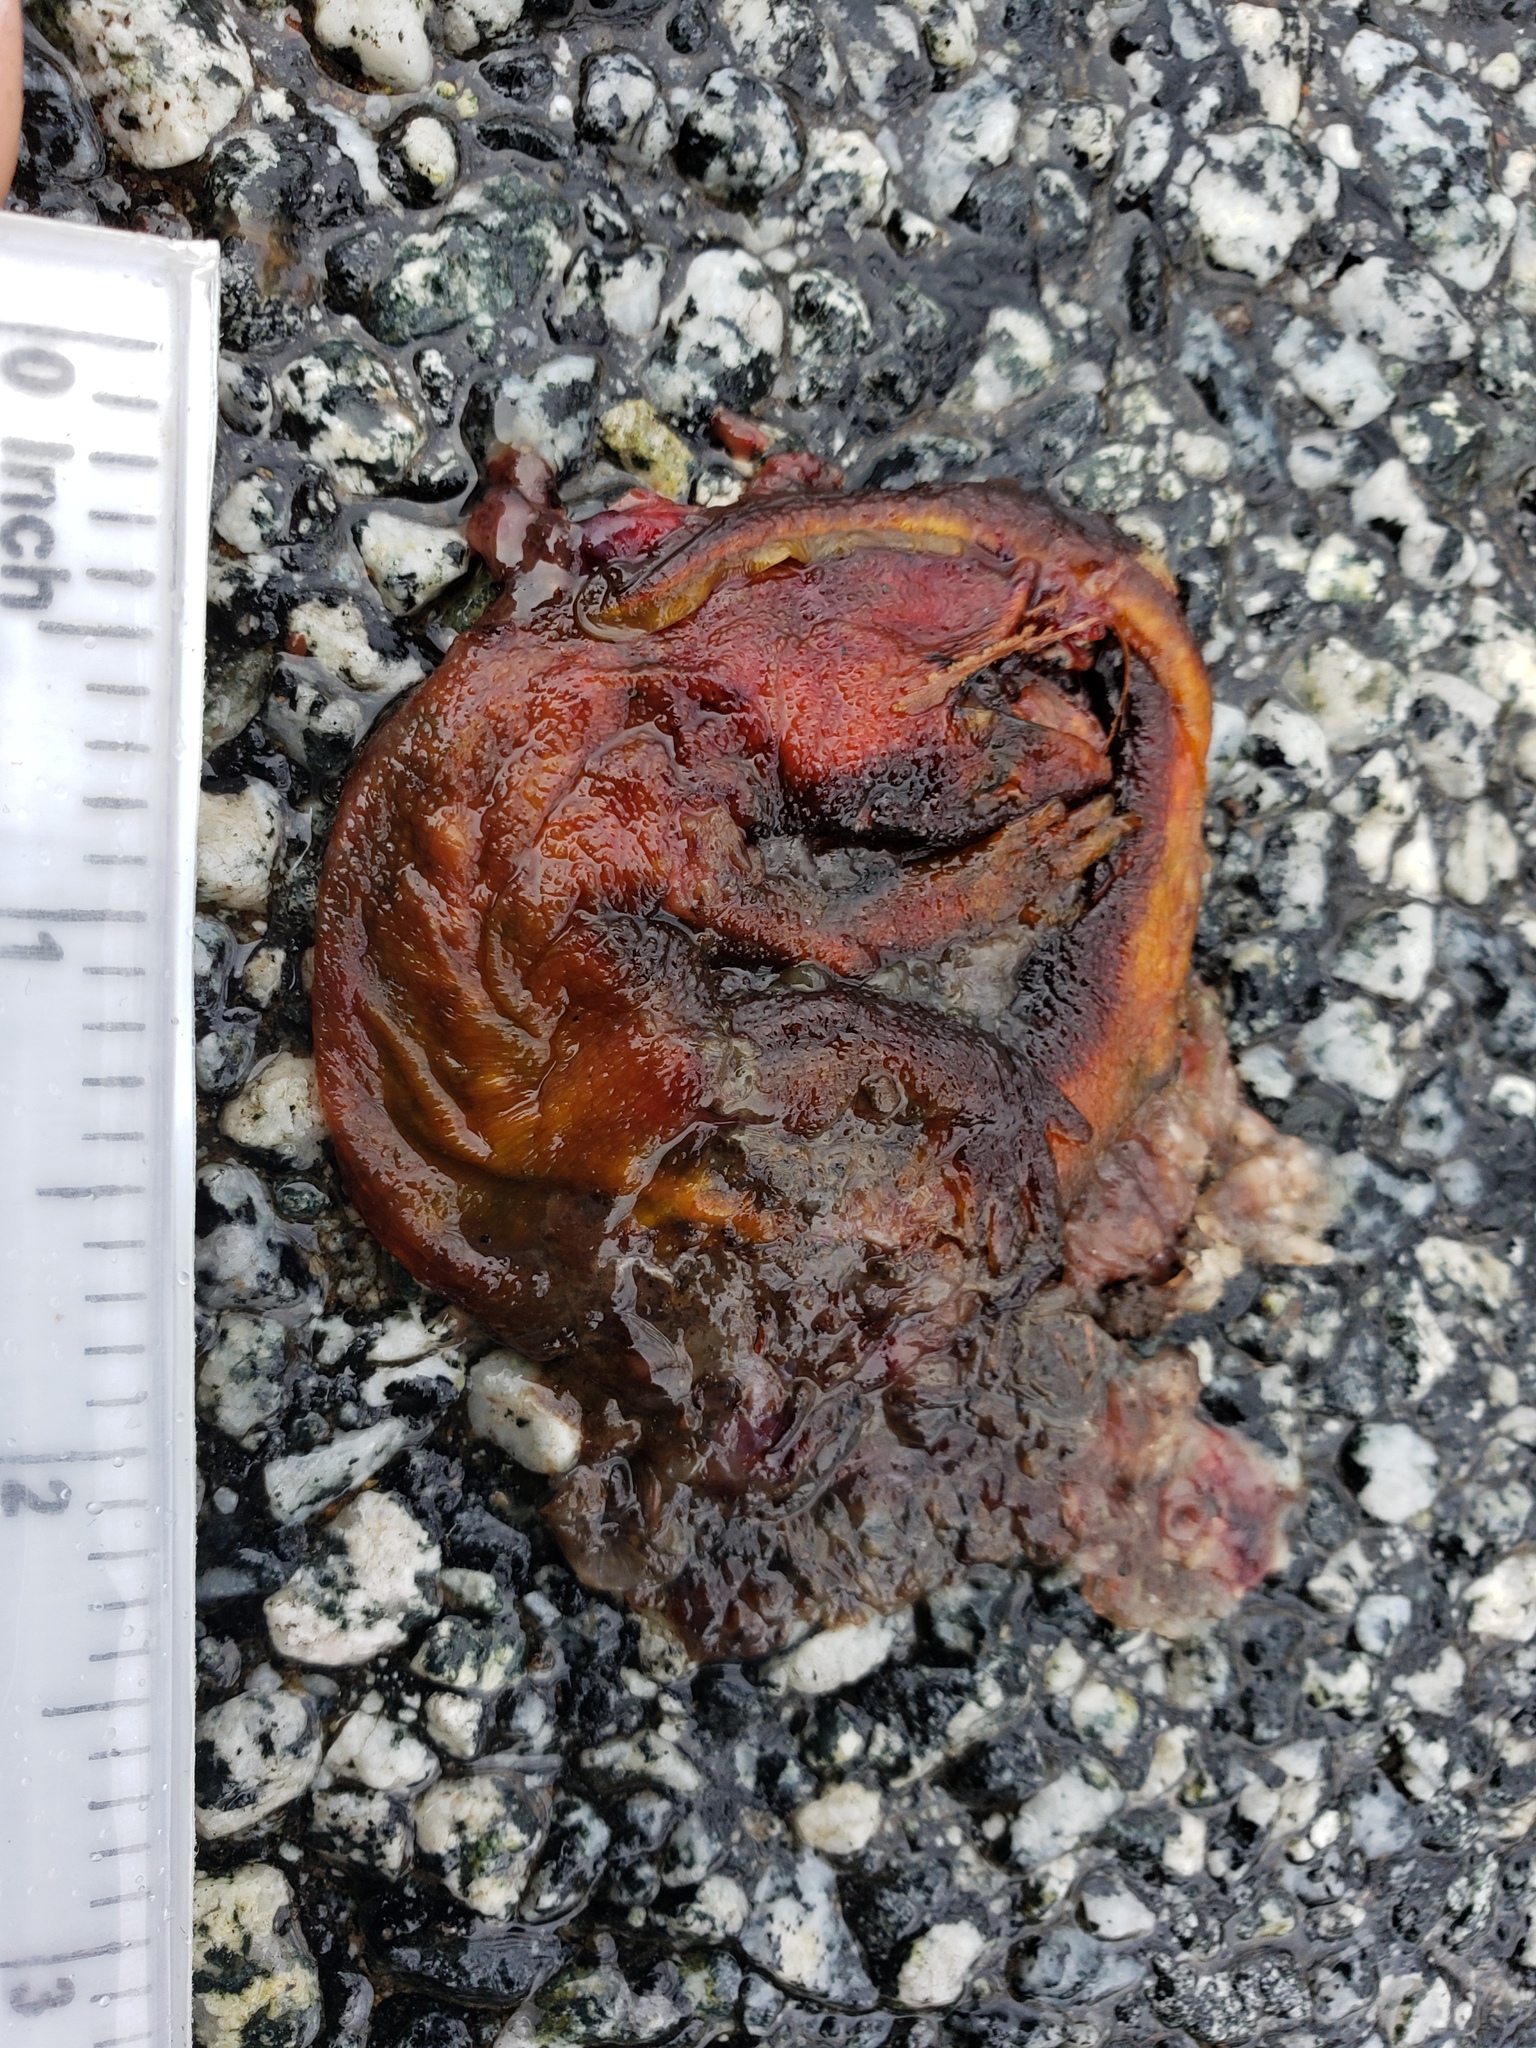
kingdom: Animalia
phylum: Chordata
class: Amphibia
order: Caudata
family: Salamandridae
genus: Taricha
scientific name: Taricha
